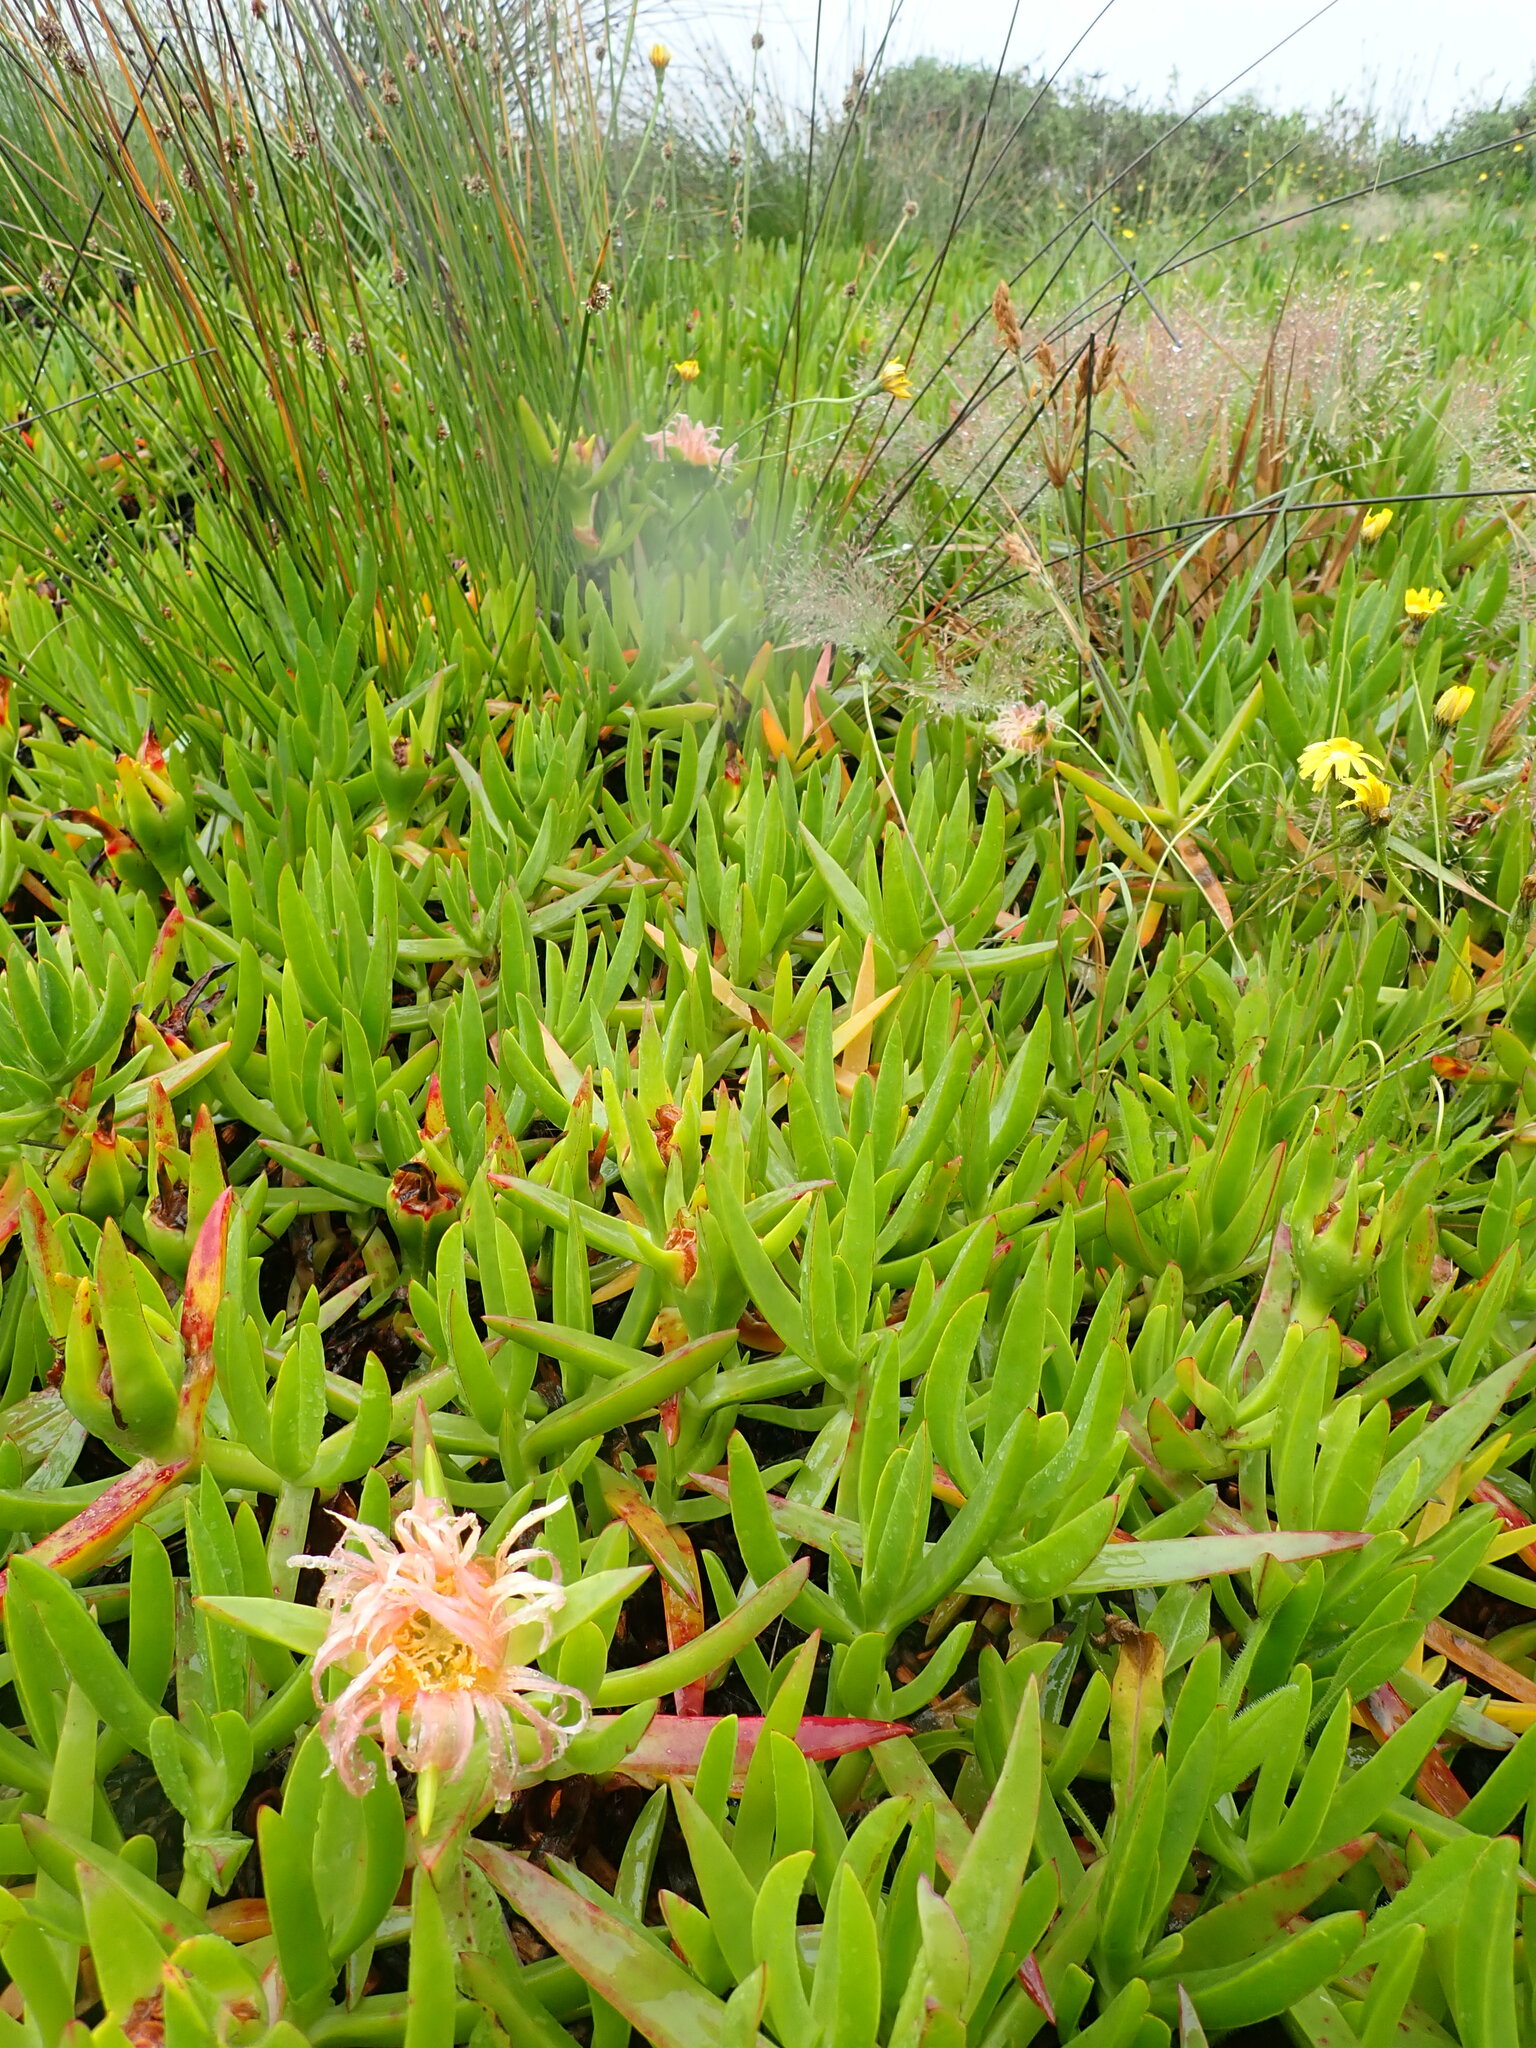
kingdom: Plantae
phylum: Tracheophyta
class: Magnoliopsida
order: Caryophyllales
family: Aizoaceae
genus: Carpobrotus
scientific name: Carpobrotus edulis
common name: Hottentot-fig
